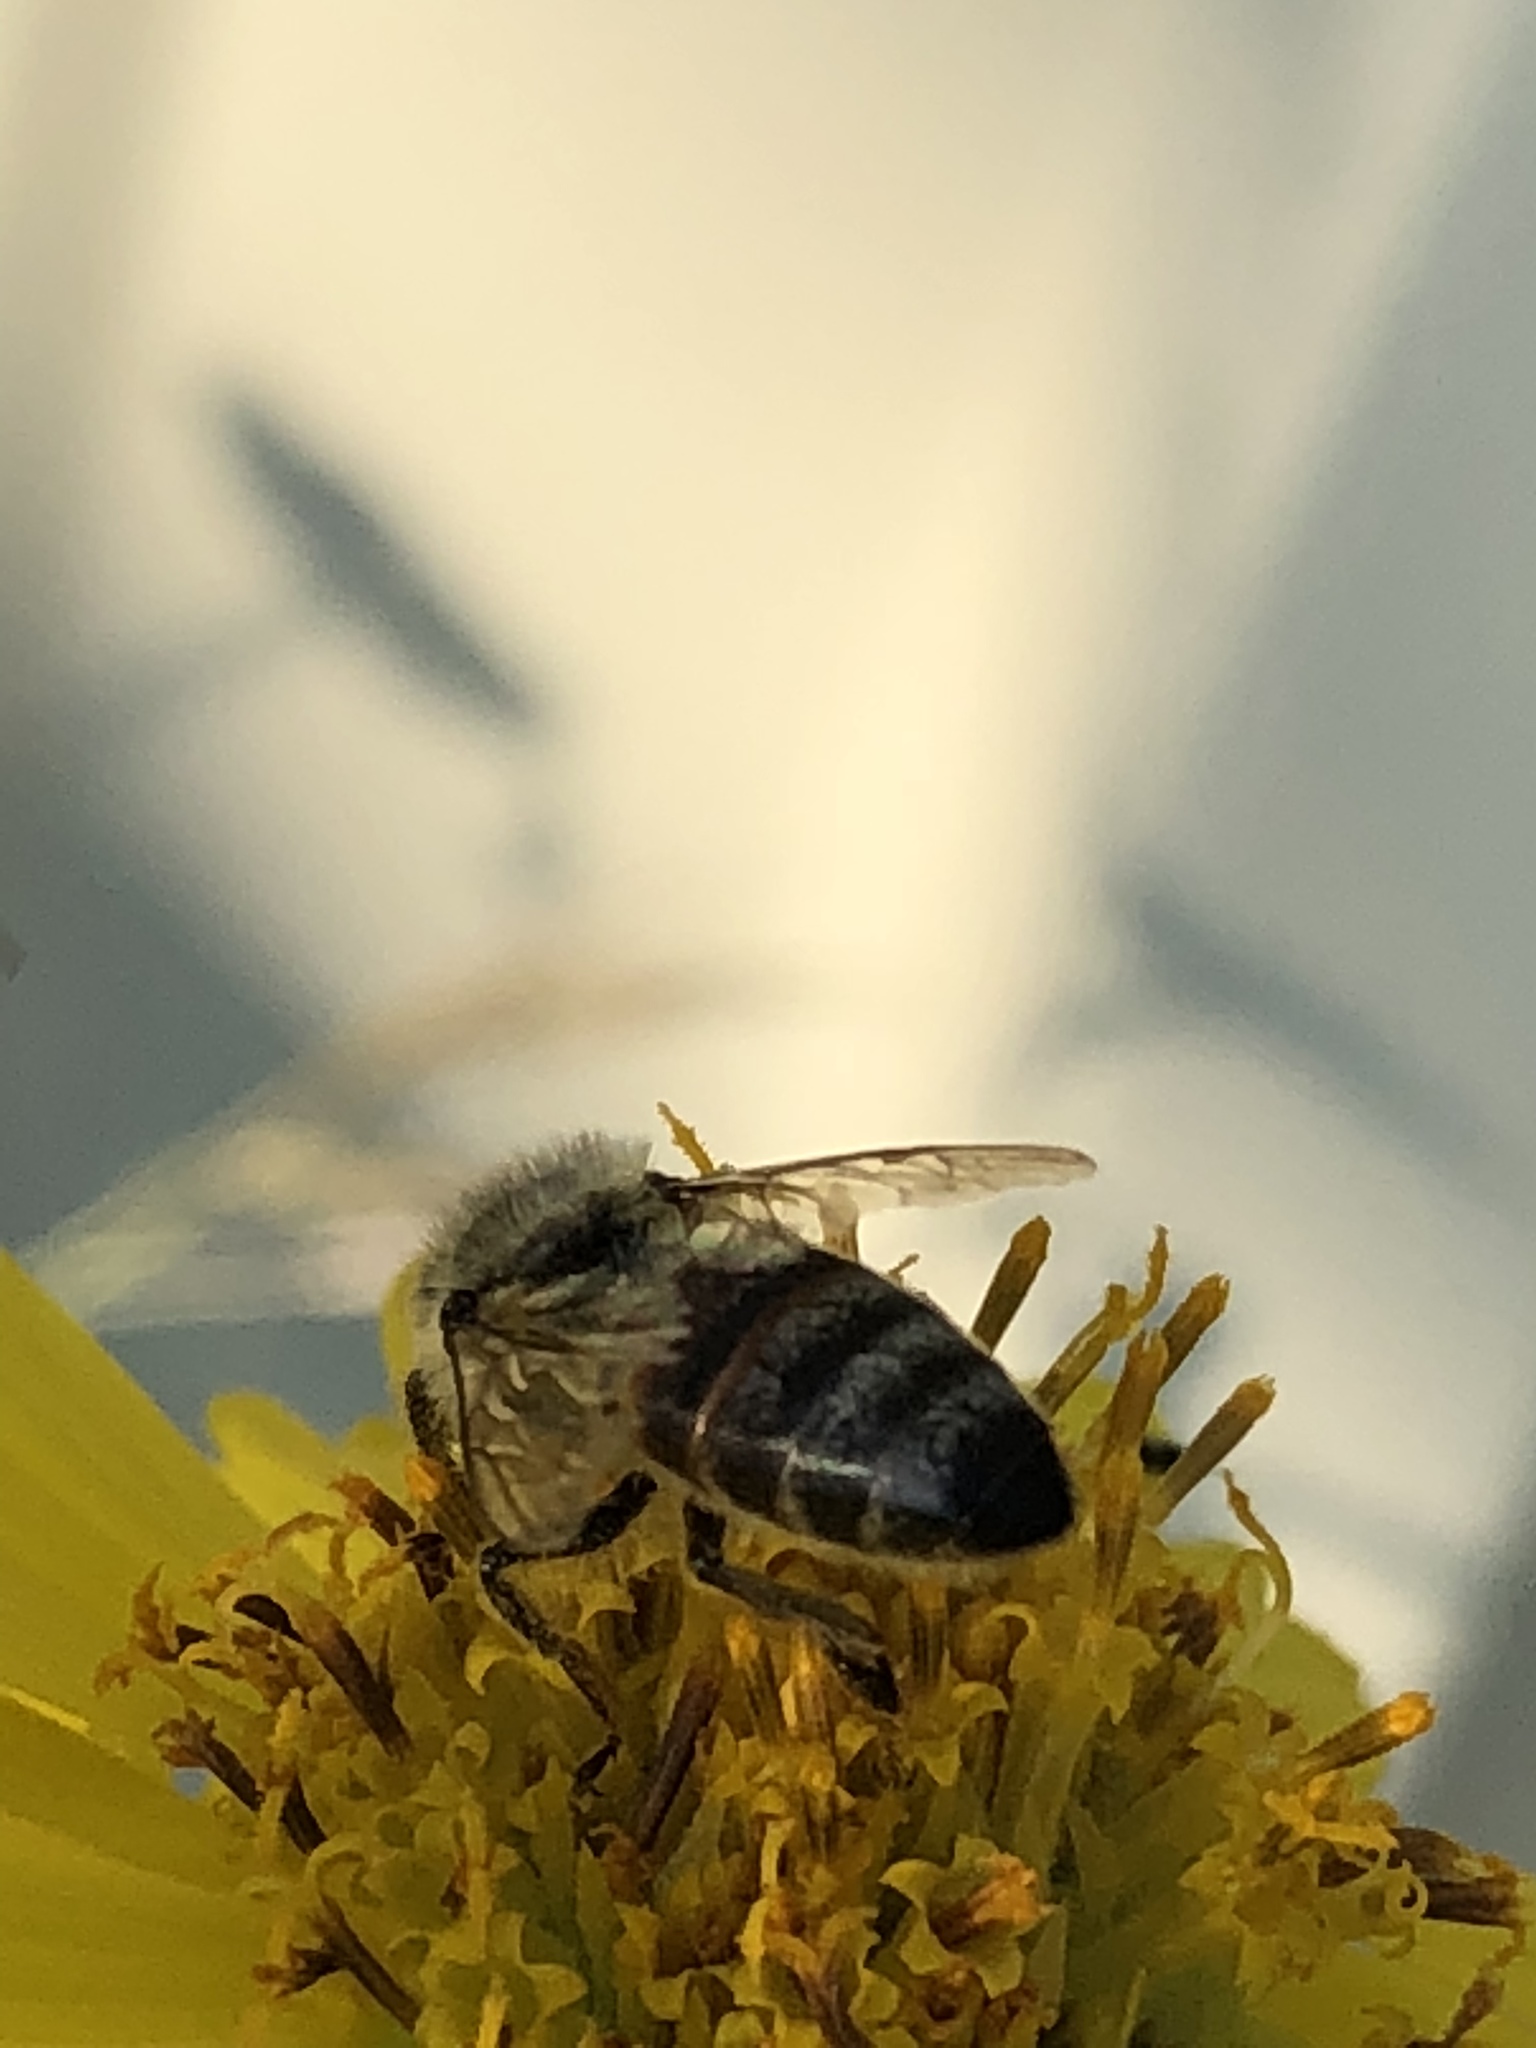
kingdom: Animalia
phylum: Arthropoda
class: Insecta
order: Hymenoptera
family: Apidae
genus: Apis
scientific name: Apis mellifera
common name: Honey bee
